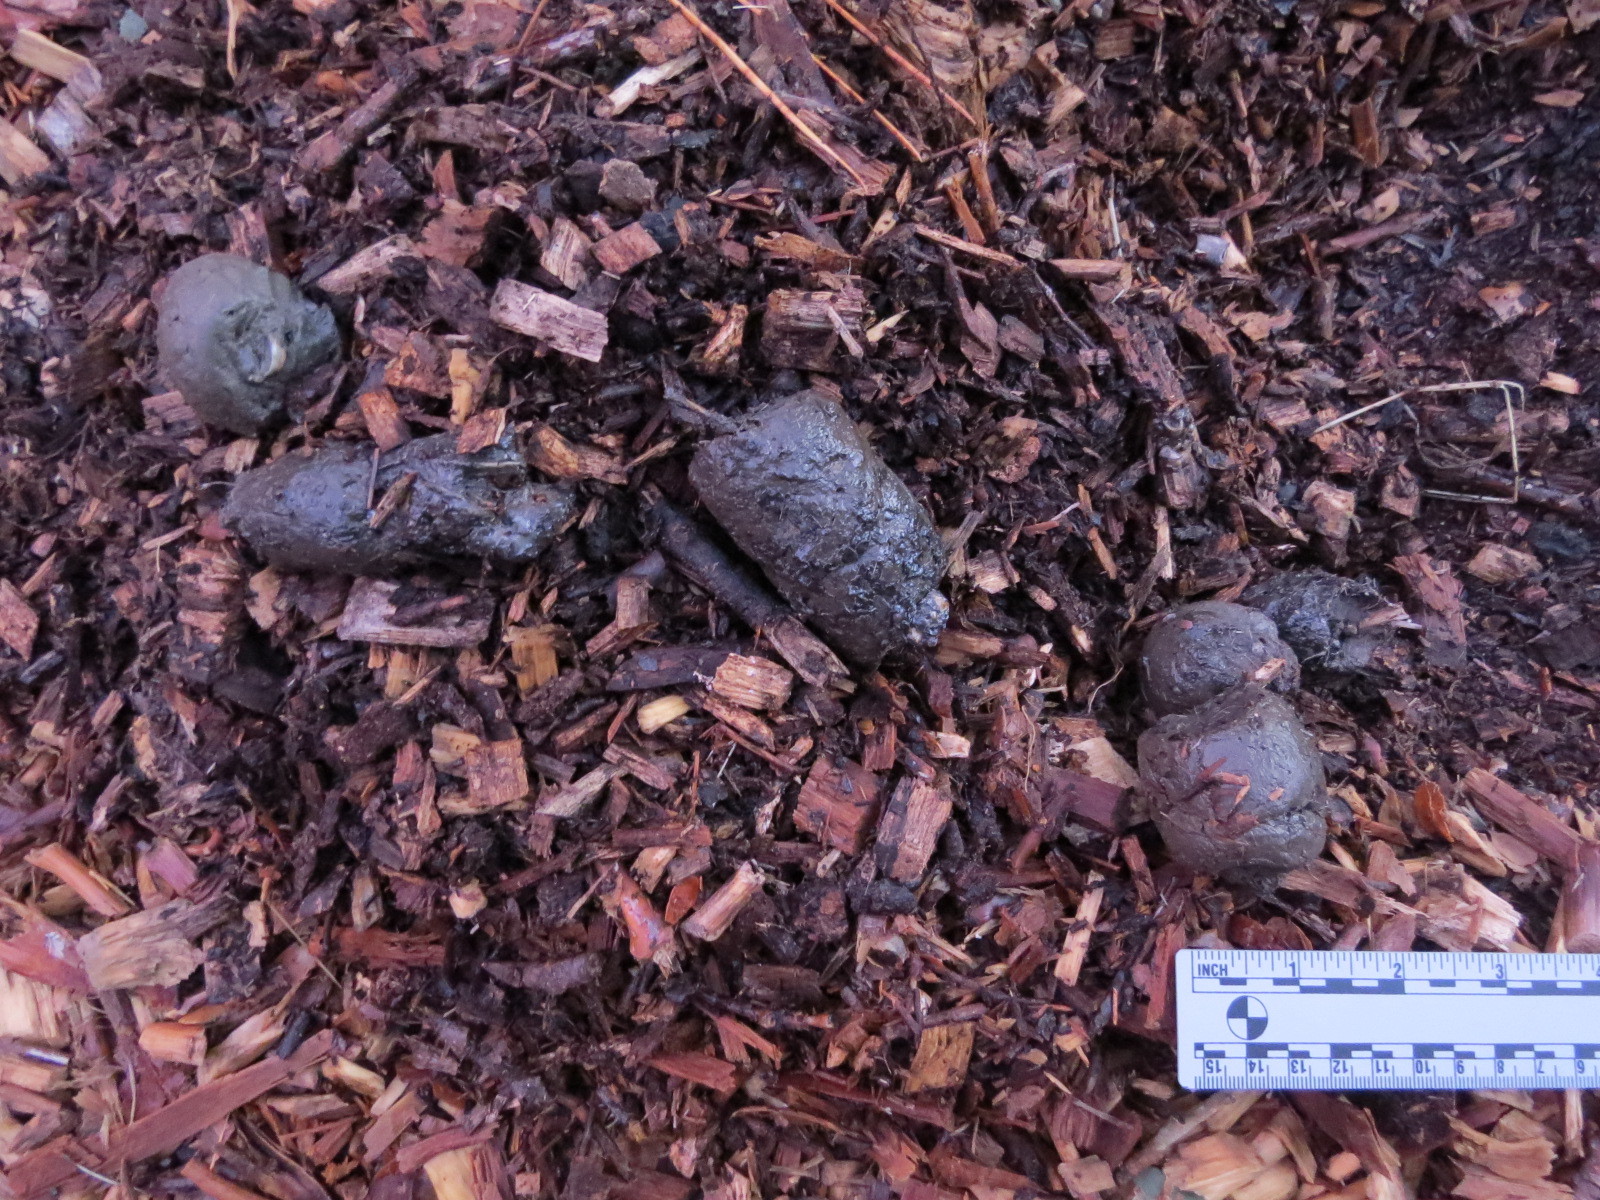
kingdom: Animalia
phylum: Chordata
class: Mammalia
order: Carnivora
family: Felidae
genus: Puma
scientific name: Puma concolor
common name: Puma
